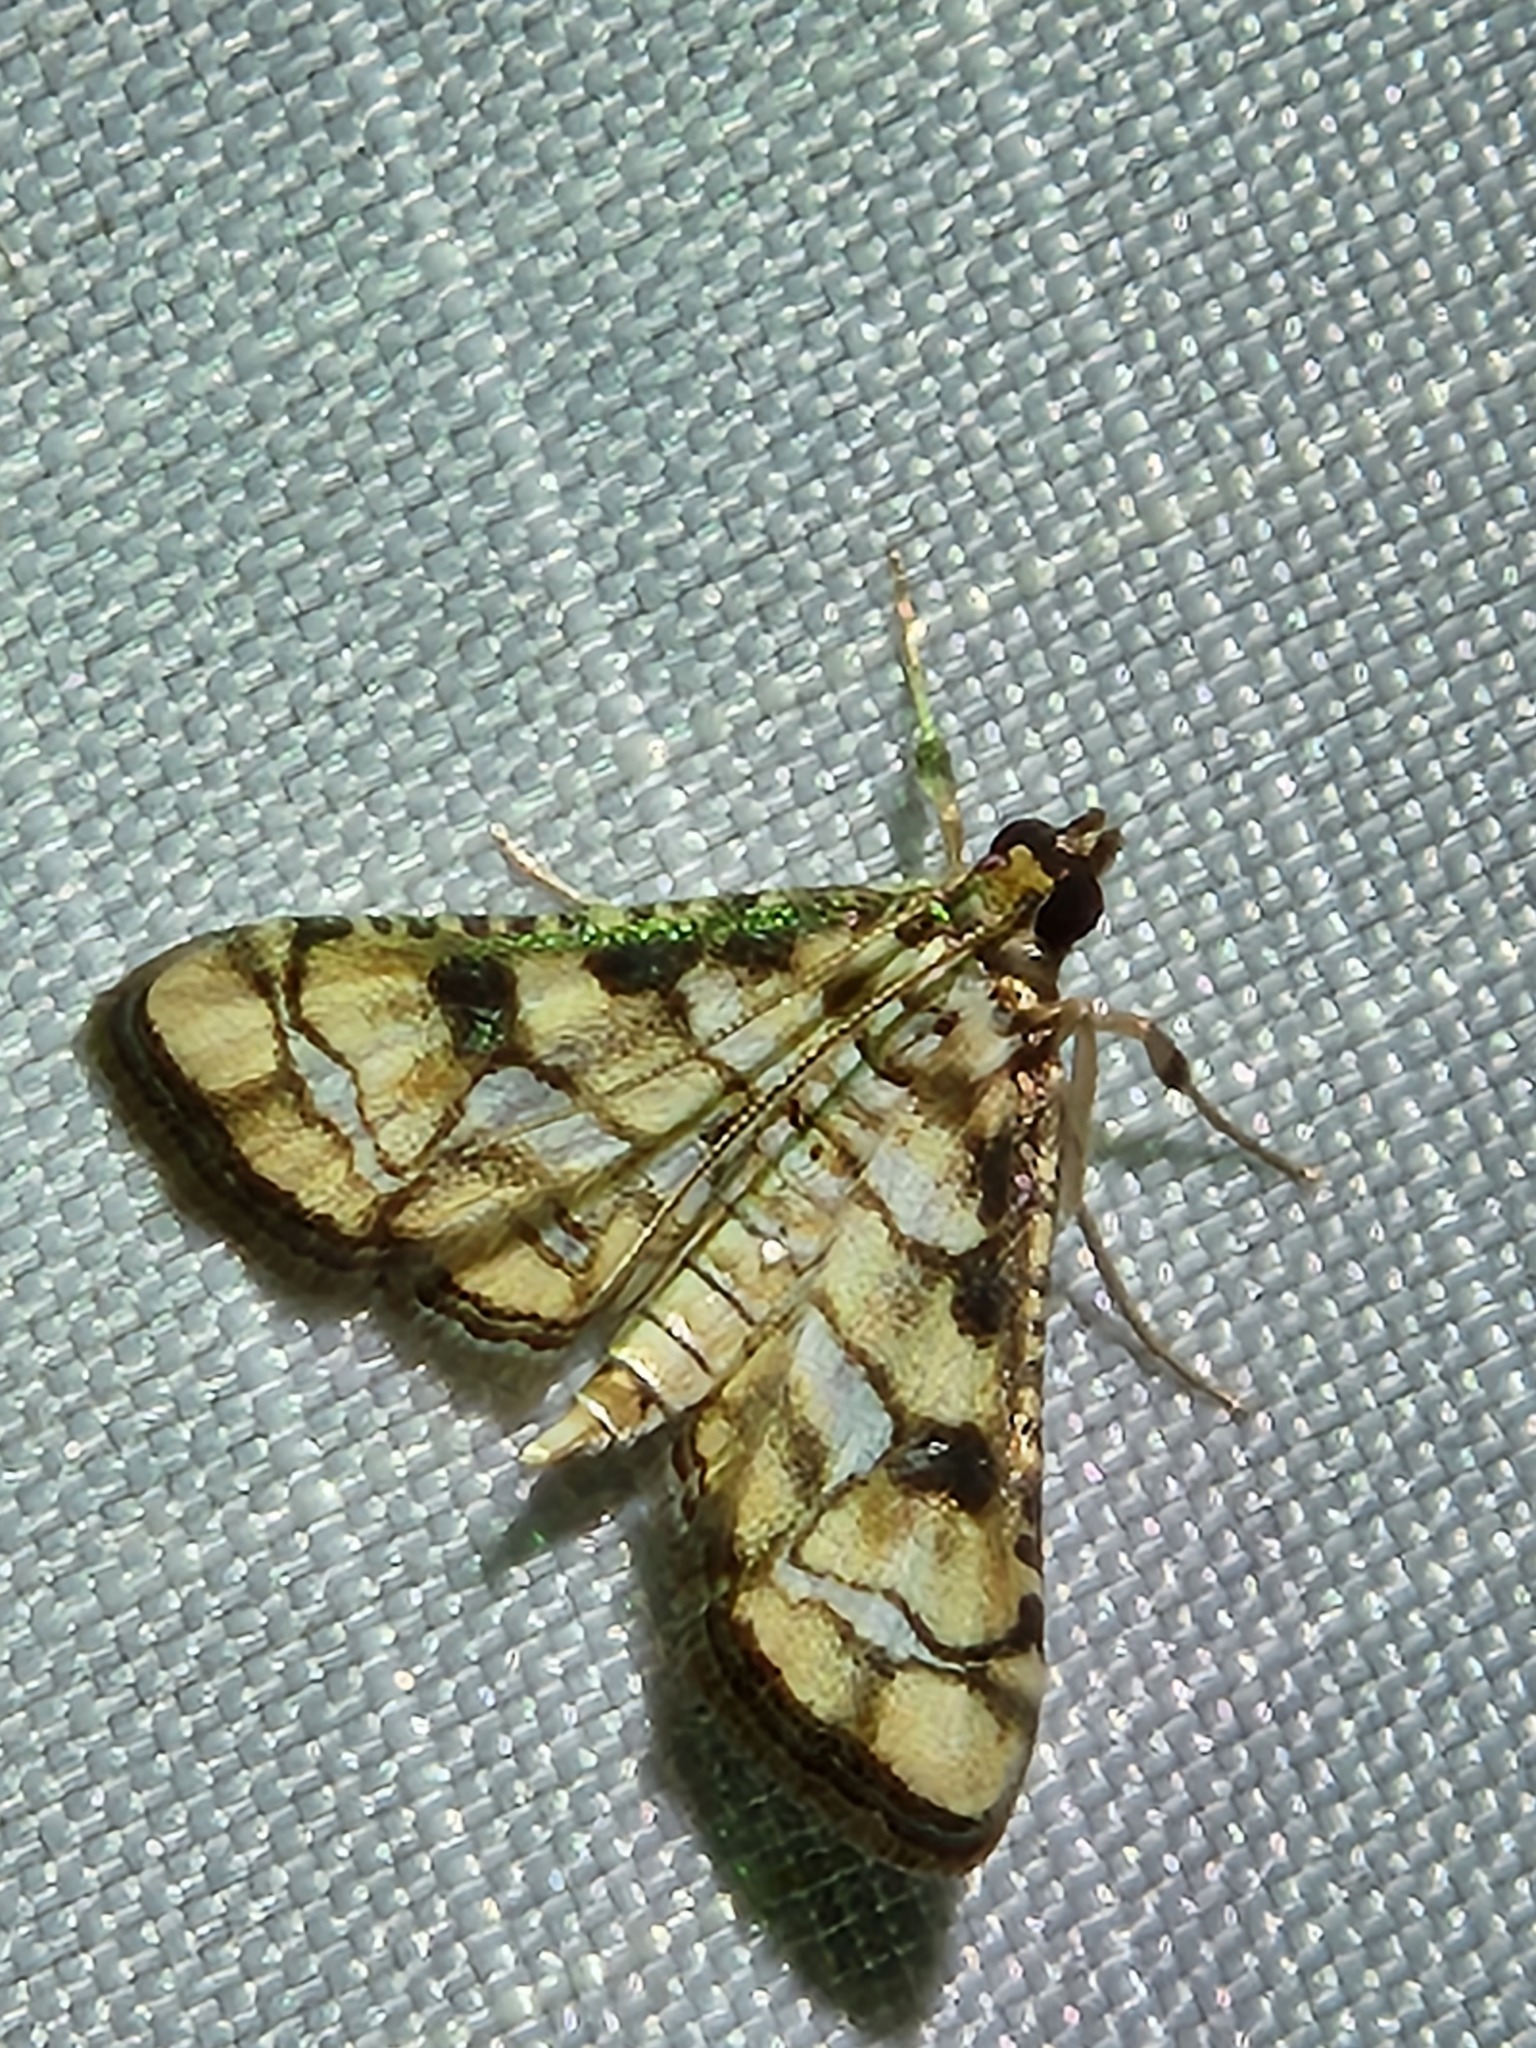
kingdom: Animalia
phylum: Arthropoda
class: Insecta
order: Lepidoptera
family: Crambidae
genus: Hileithia
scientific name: Hileithia magualis
